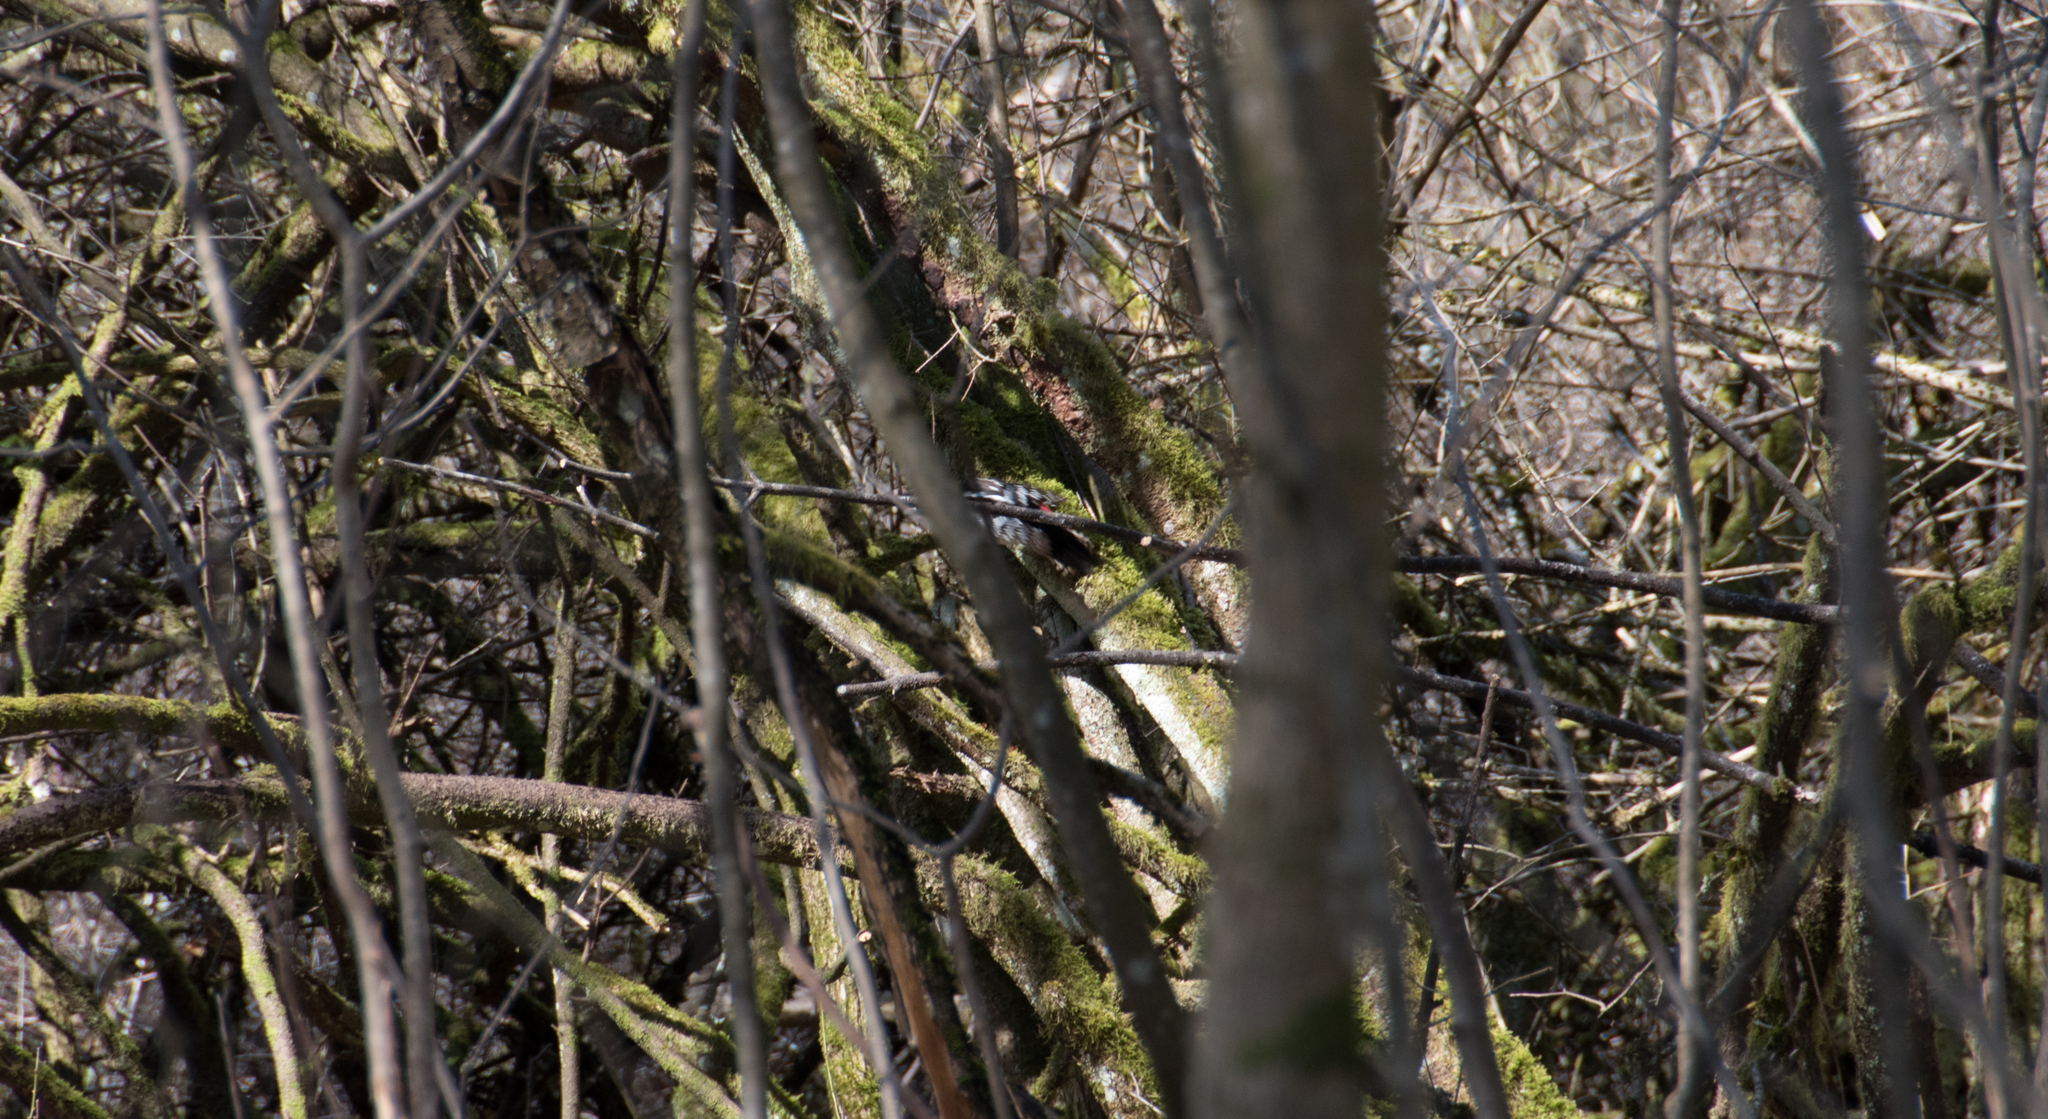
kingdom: Animalia
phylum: Chordata
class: Aves
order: Piciformes
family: Picidae
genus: Dendrocopos
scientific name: Dendrocopos major
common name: Great spotted woodpecker
